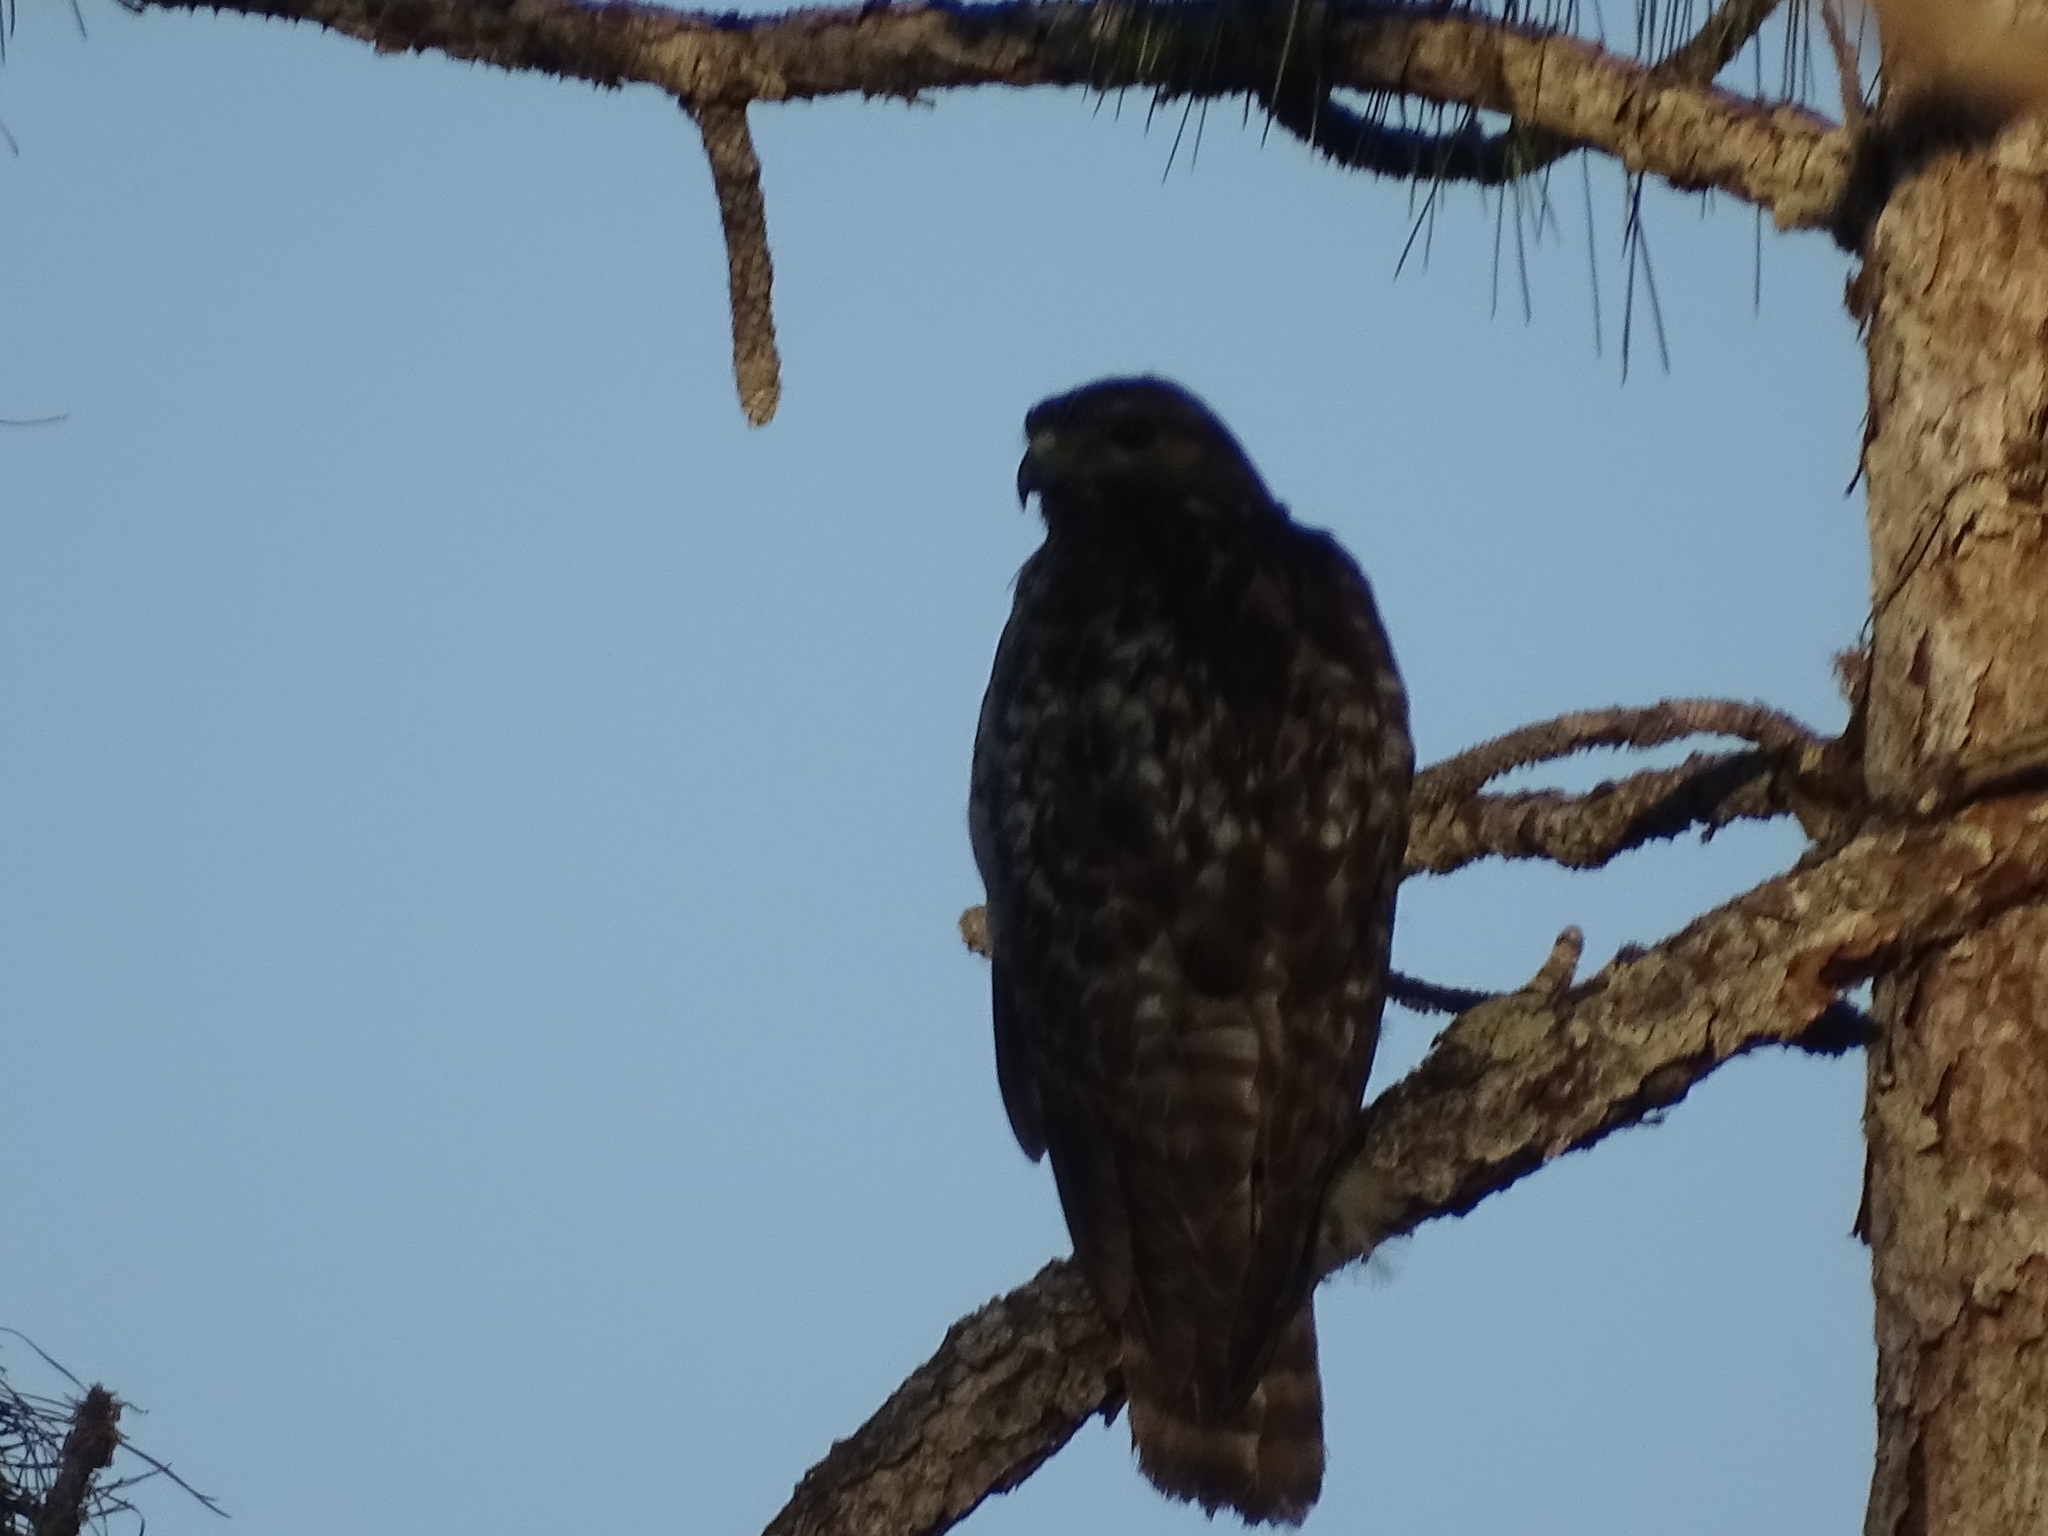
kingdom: Animalia
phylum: Chordata
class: Aves
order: Accipitriformes
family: Accipitridae
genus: Buteo
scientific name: Buteo lineatus
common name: Red-shouldered hawk
